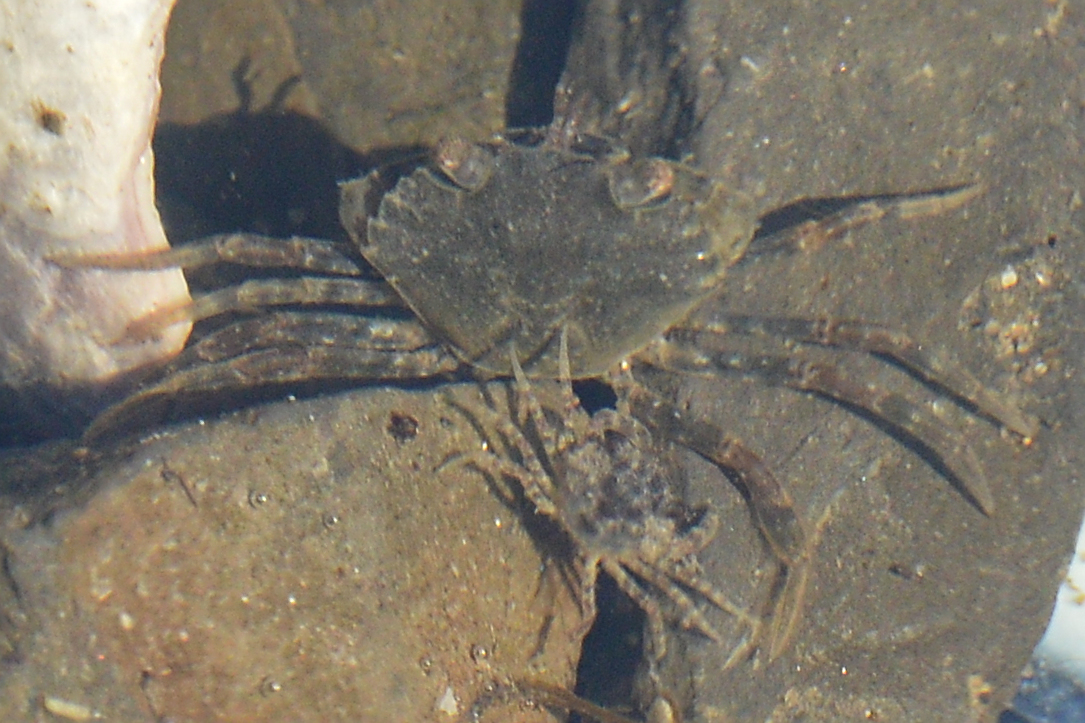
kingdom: Animalia
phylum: Arthropoda
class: Malacostraca
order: Decapoda
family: Carcinidae
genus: Carcinus
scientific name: Carcinus maenas
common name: European green crab
